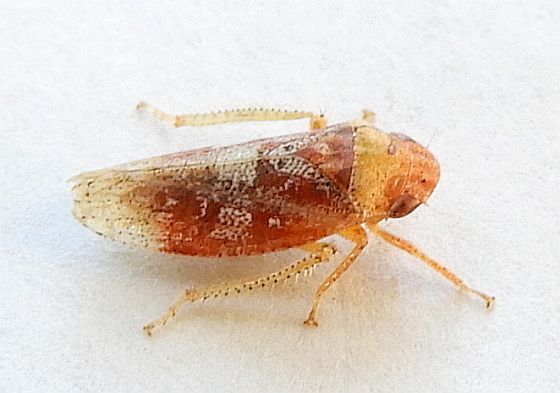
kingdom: Animalia
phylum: Arthropoda
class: Insecta
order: Hemiptera
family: Cicadellidae
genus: Dragonana
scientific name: Dragonana dracontea
